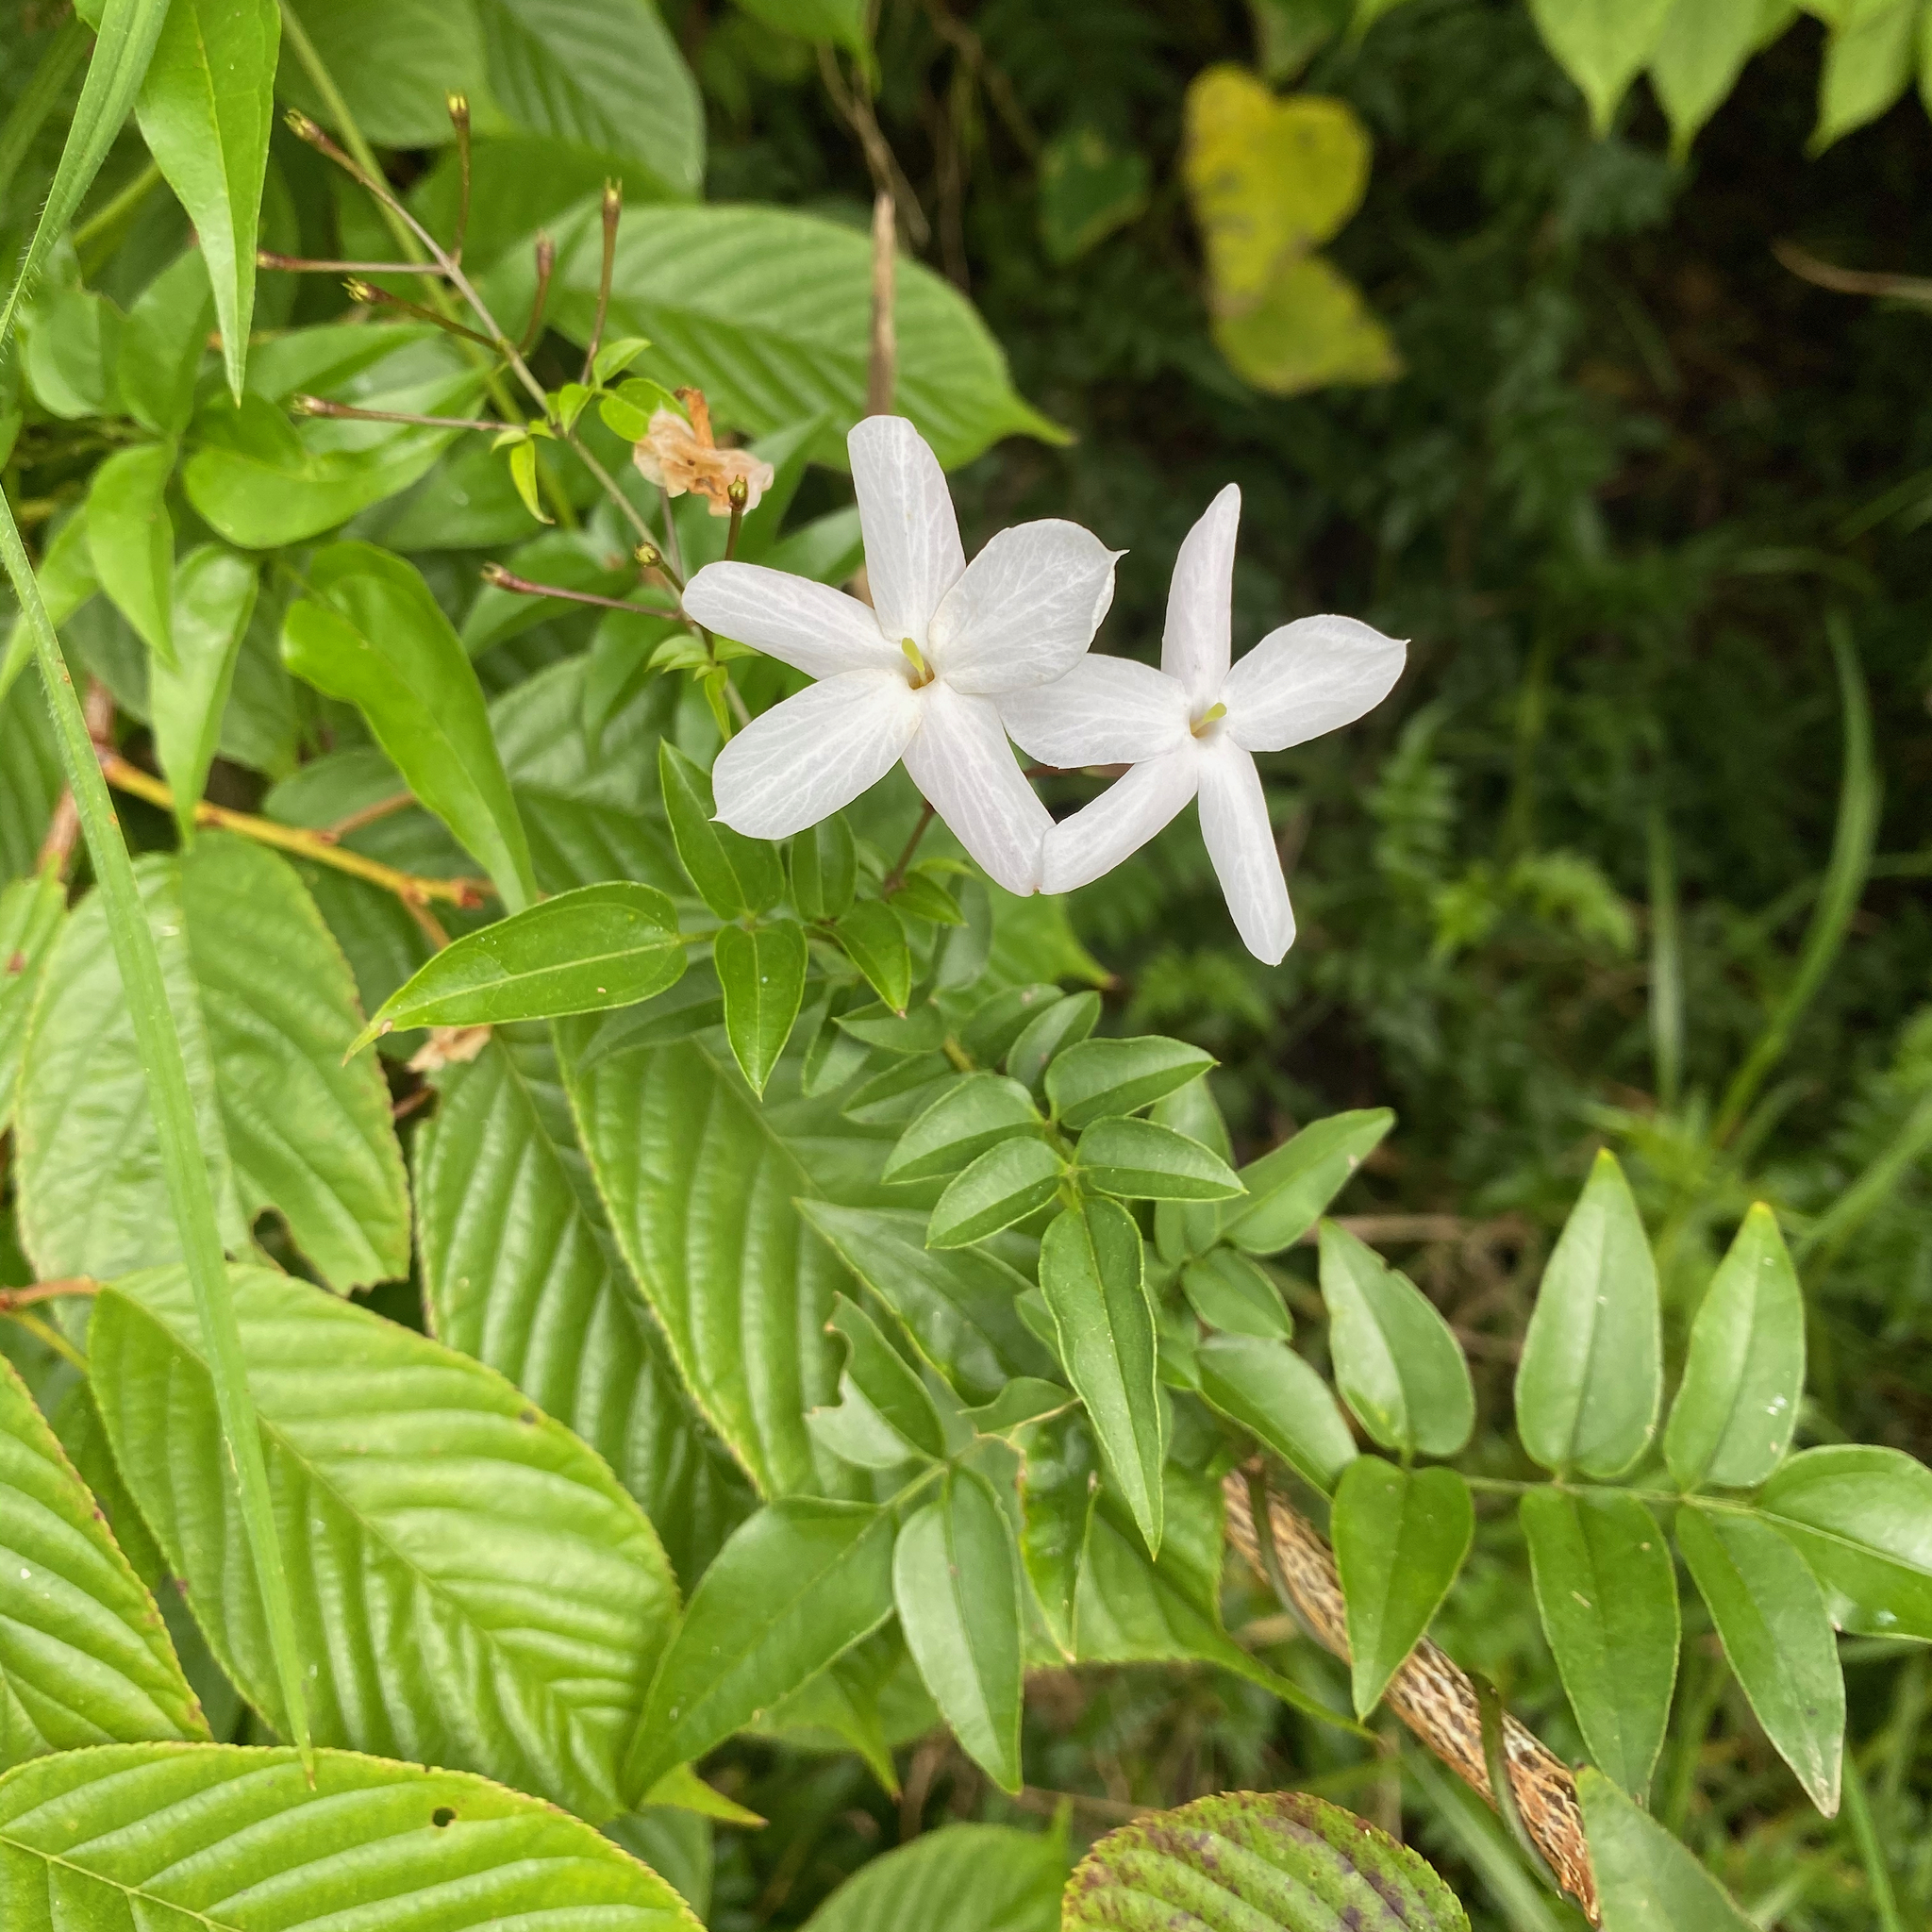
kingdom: Plantae
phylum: Tracheophyta
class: Magnoliopsida
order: Lamiales
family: Oleaceae
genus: Jasminum
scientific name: Jasminum polyanthum
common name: Pink jasmine
